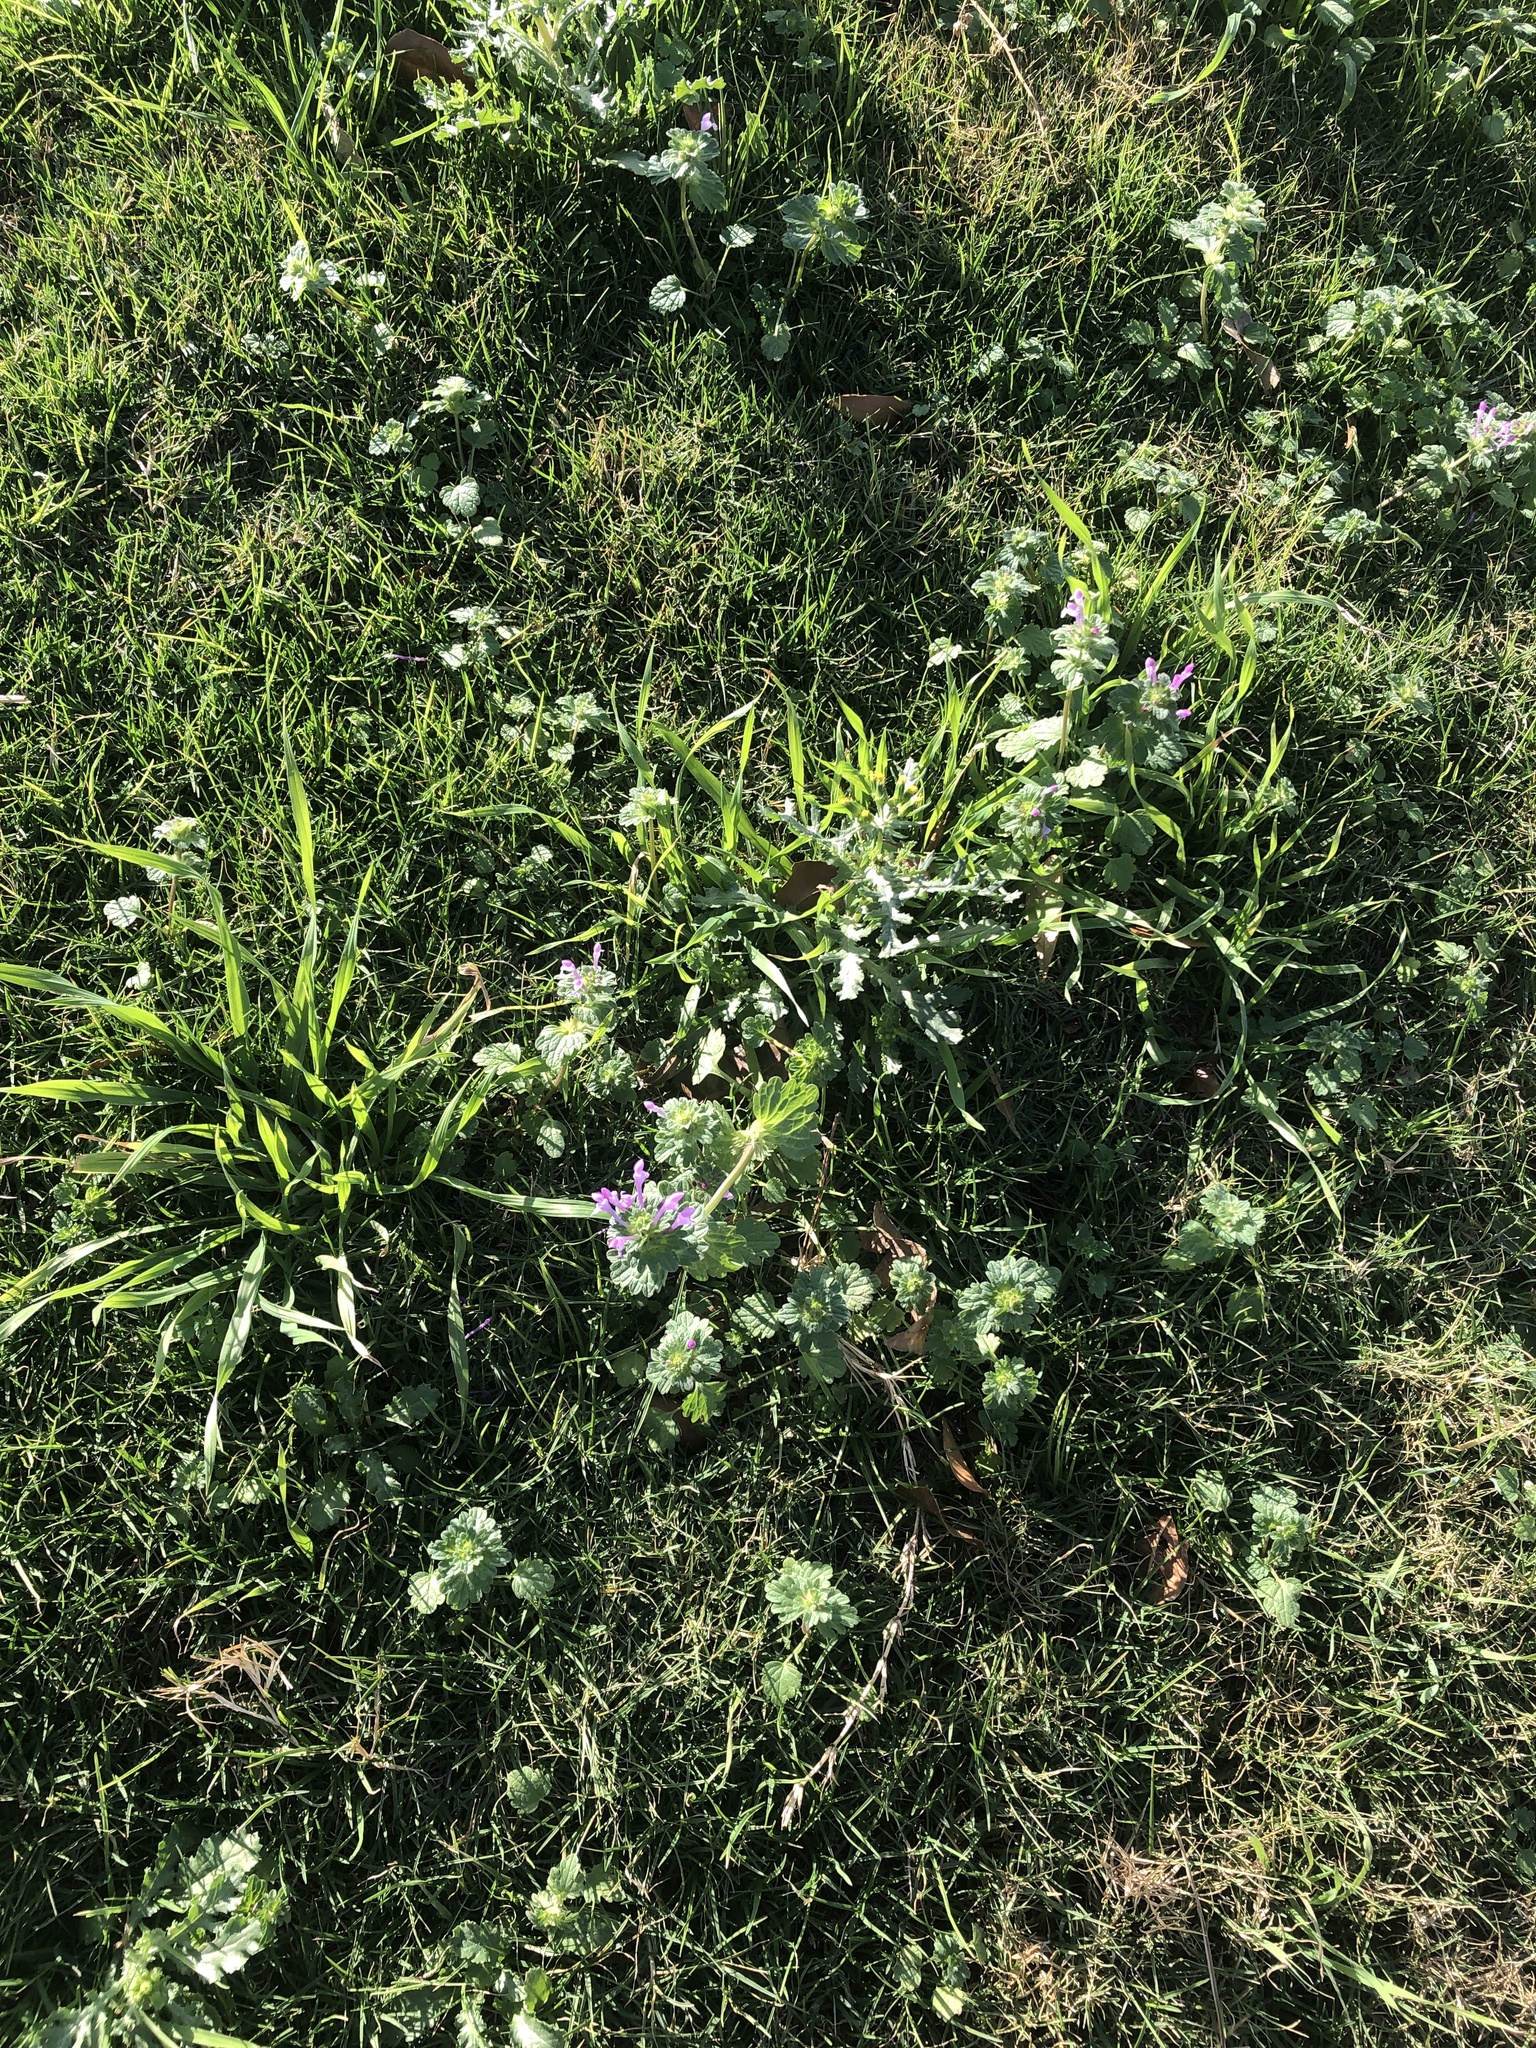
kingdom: Plantae
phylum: Tracheophyta
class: Magnoliopsida
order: Lamiales
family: Lamiaceae
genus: Lamium
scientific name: Lamium amplexicaule
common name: Henbit dead-nettle
